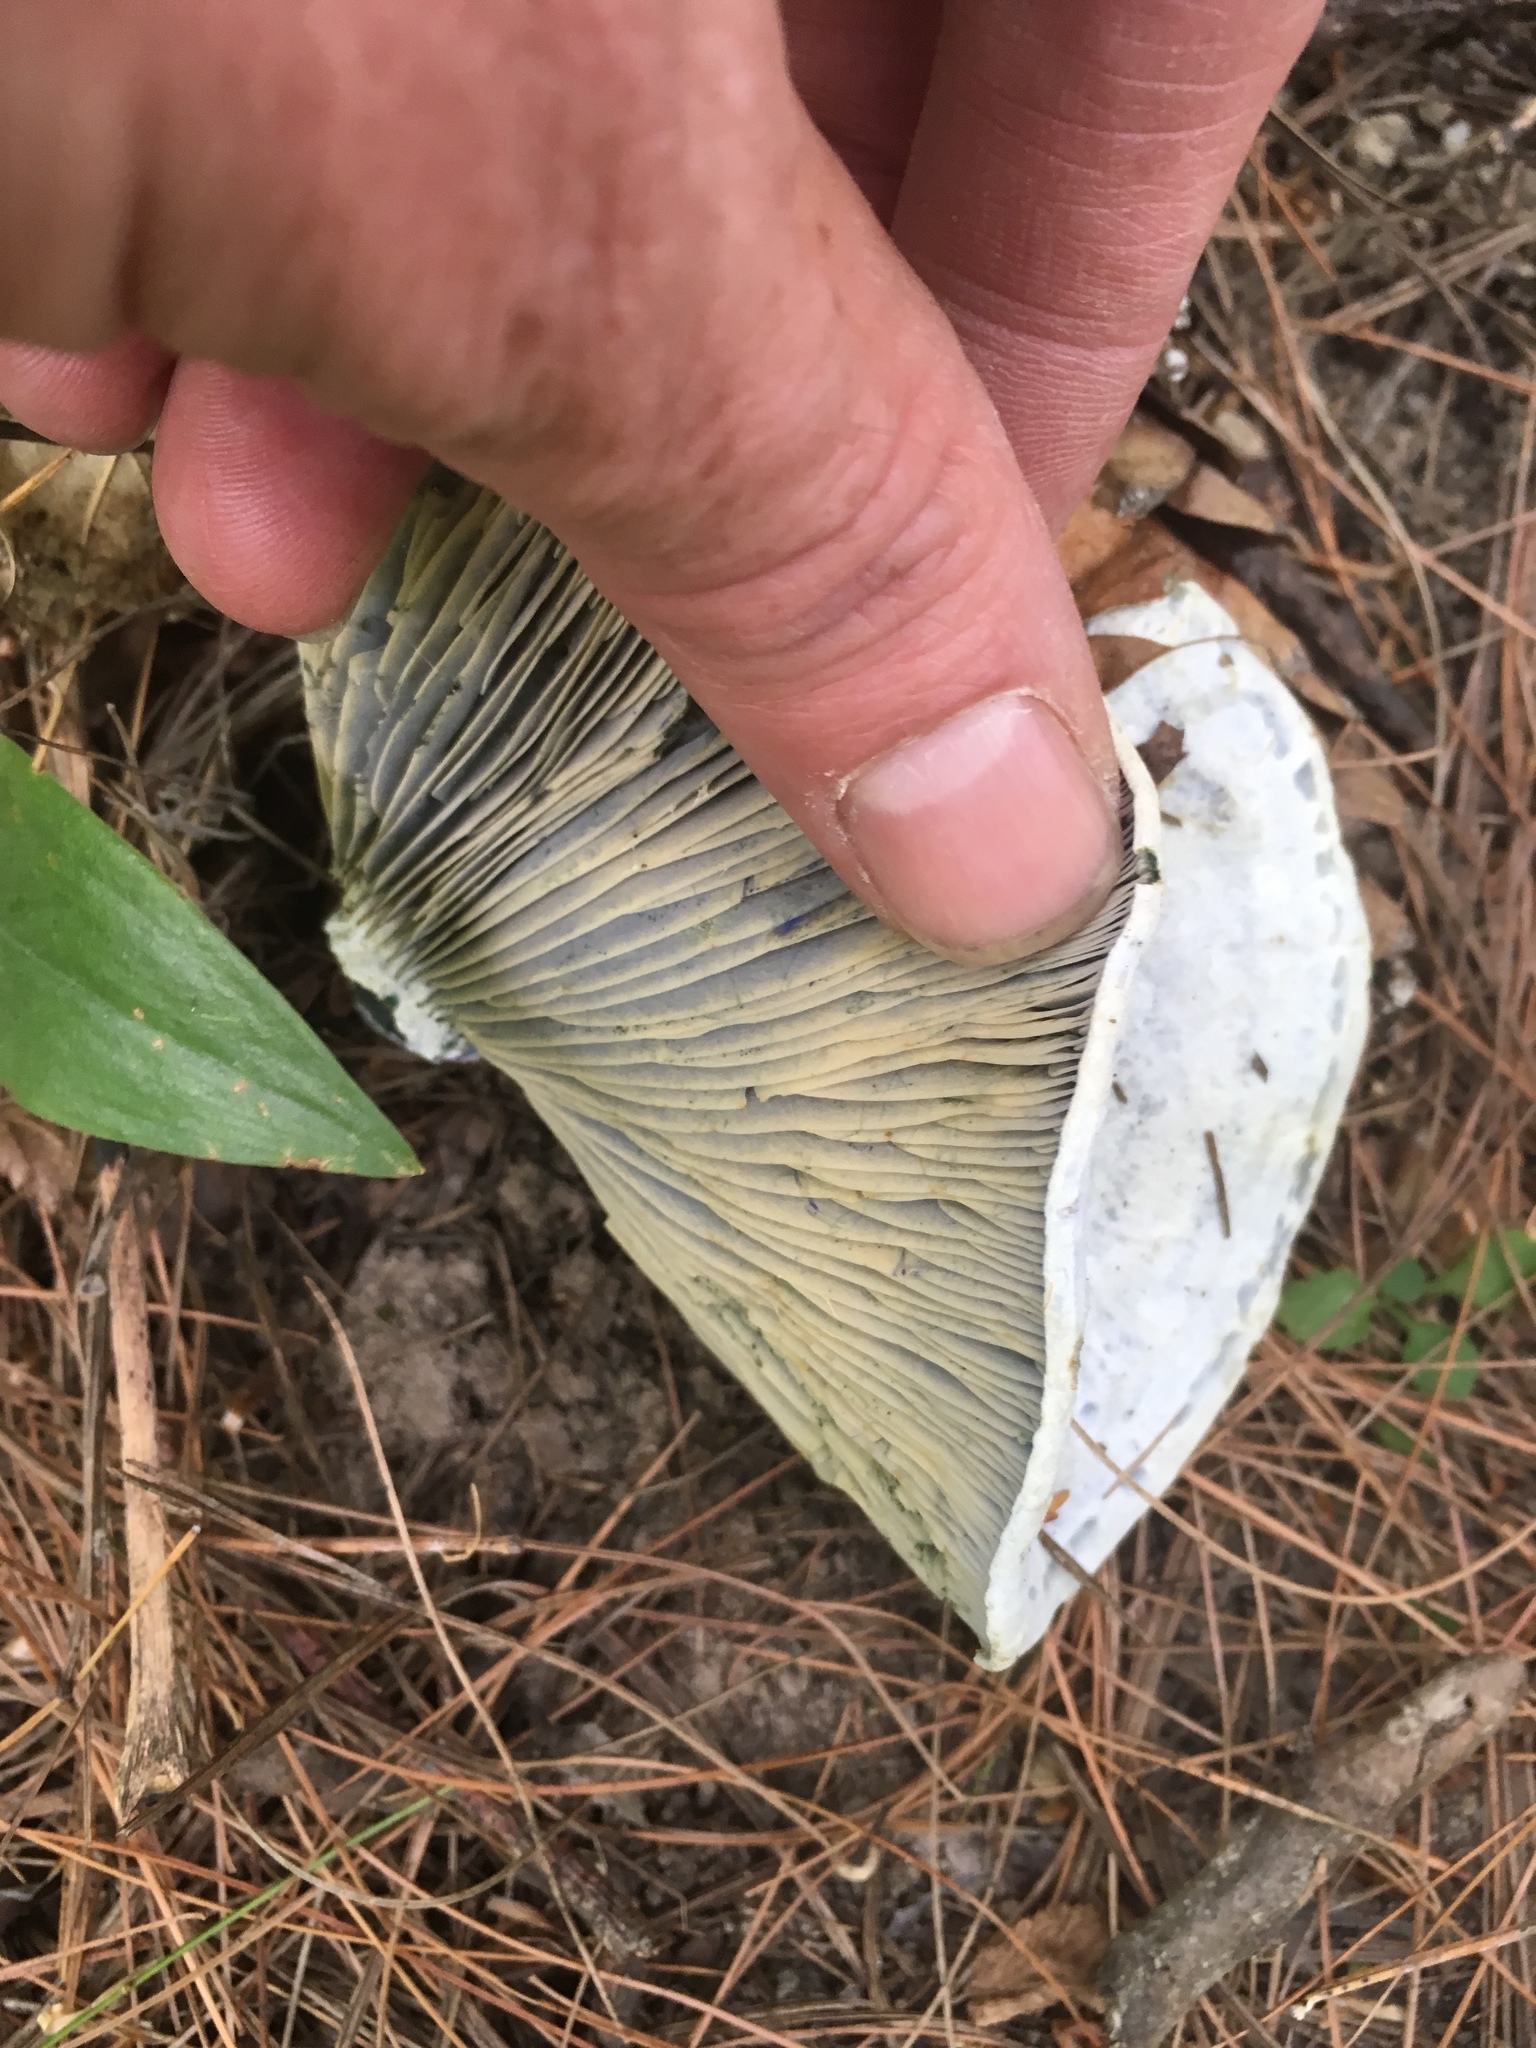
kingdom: Fungi
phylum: Basidiomycota
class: Agaricomycetes
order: Russulales
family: Russulaceae
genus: Lactarius
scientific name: Lactarius indigo
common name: Indigo milk cap
